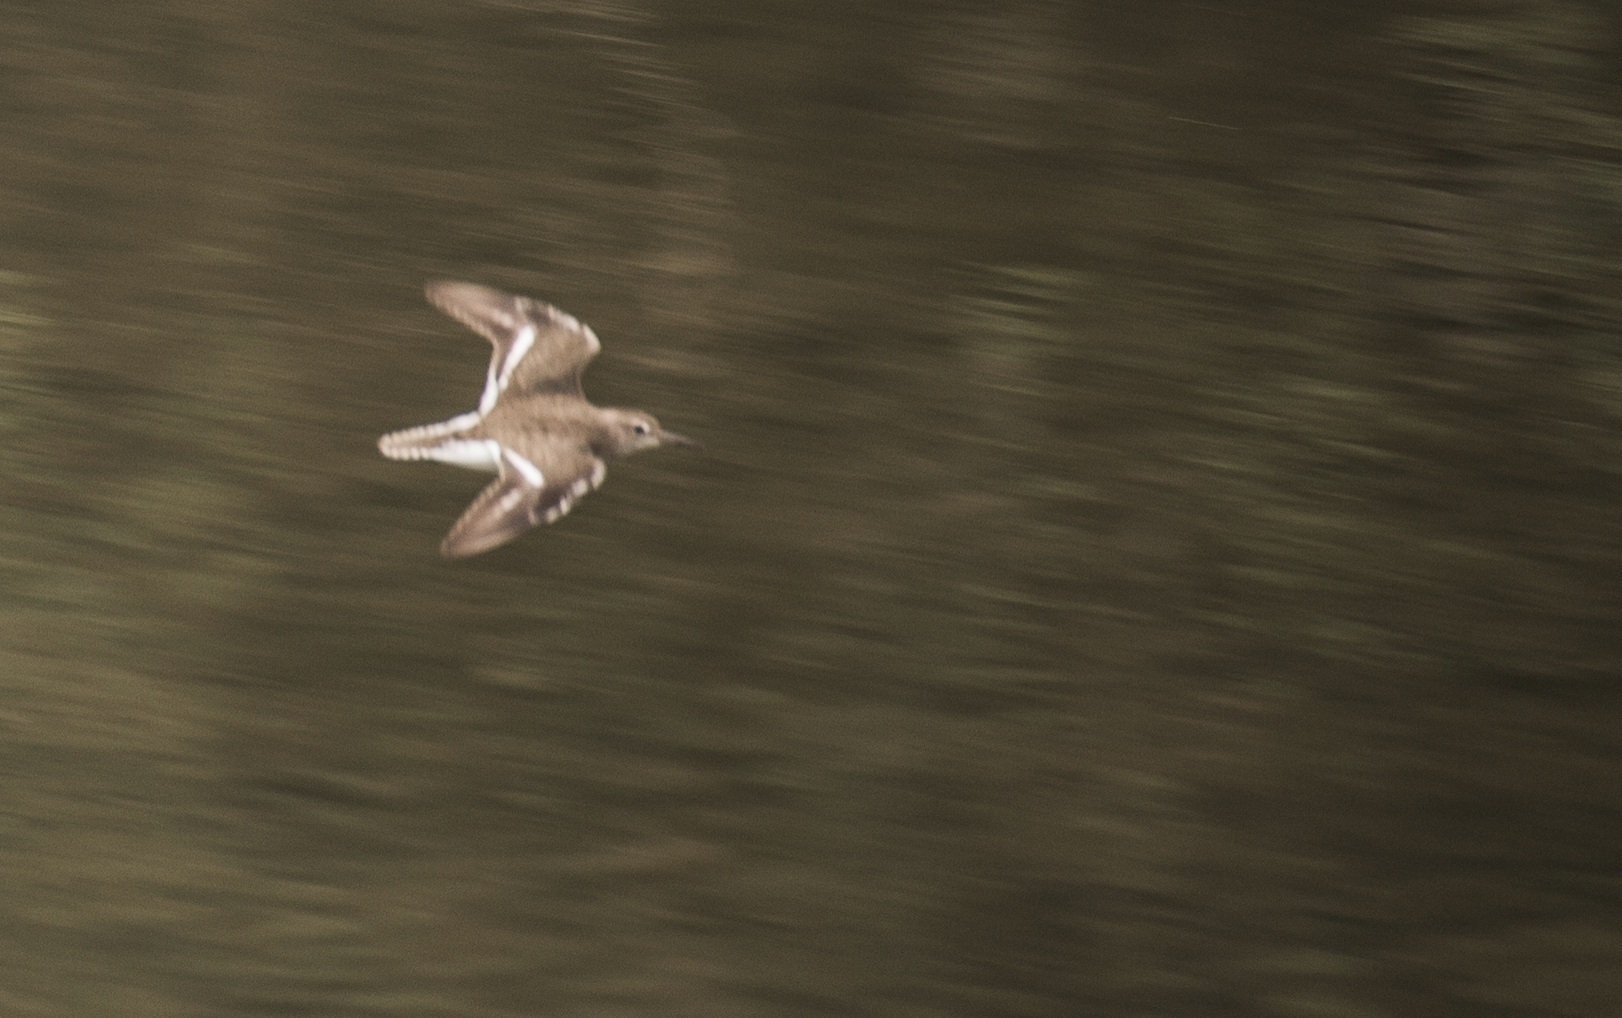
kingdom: Animalia
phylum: Chordata
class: Aves
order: Charadriiformes
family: Scolopacidae
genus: Actitis
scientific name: Actitis hypoleucos
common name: Common sandpiper
